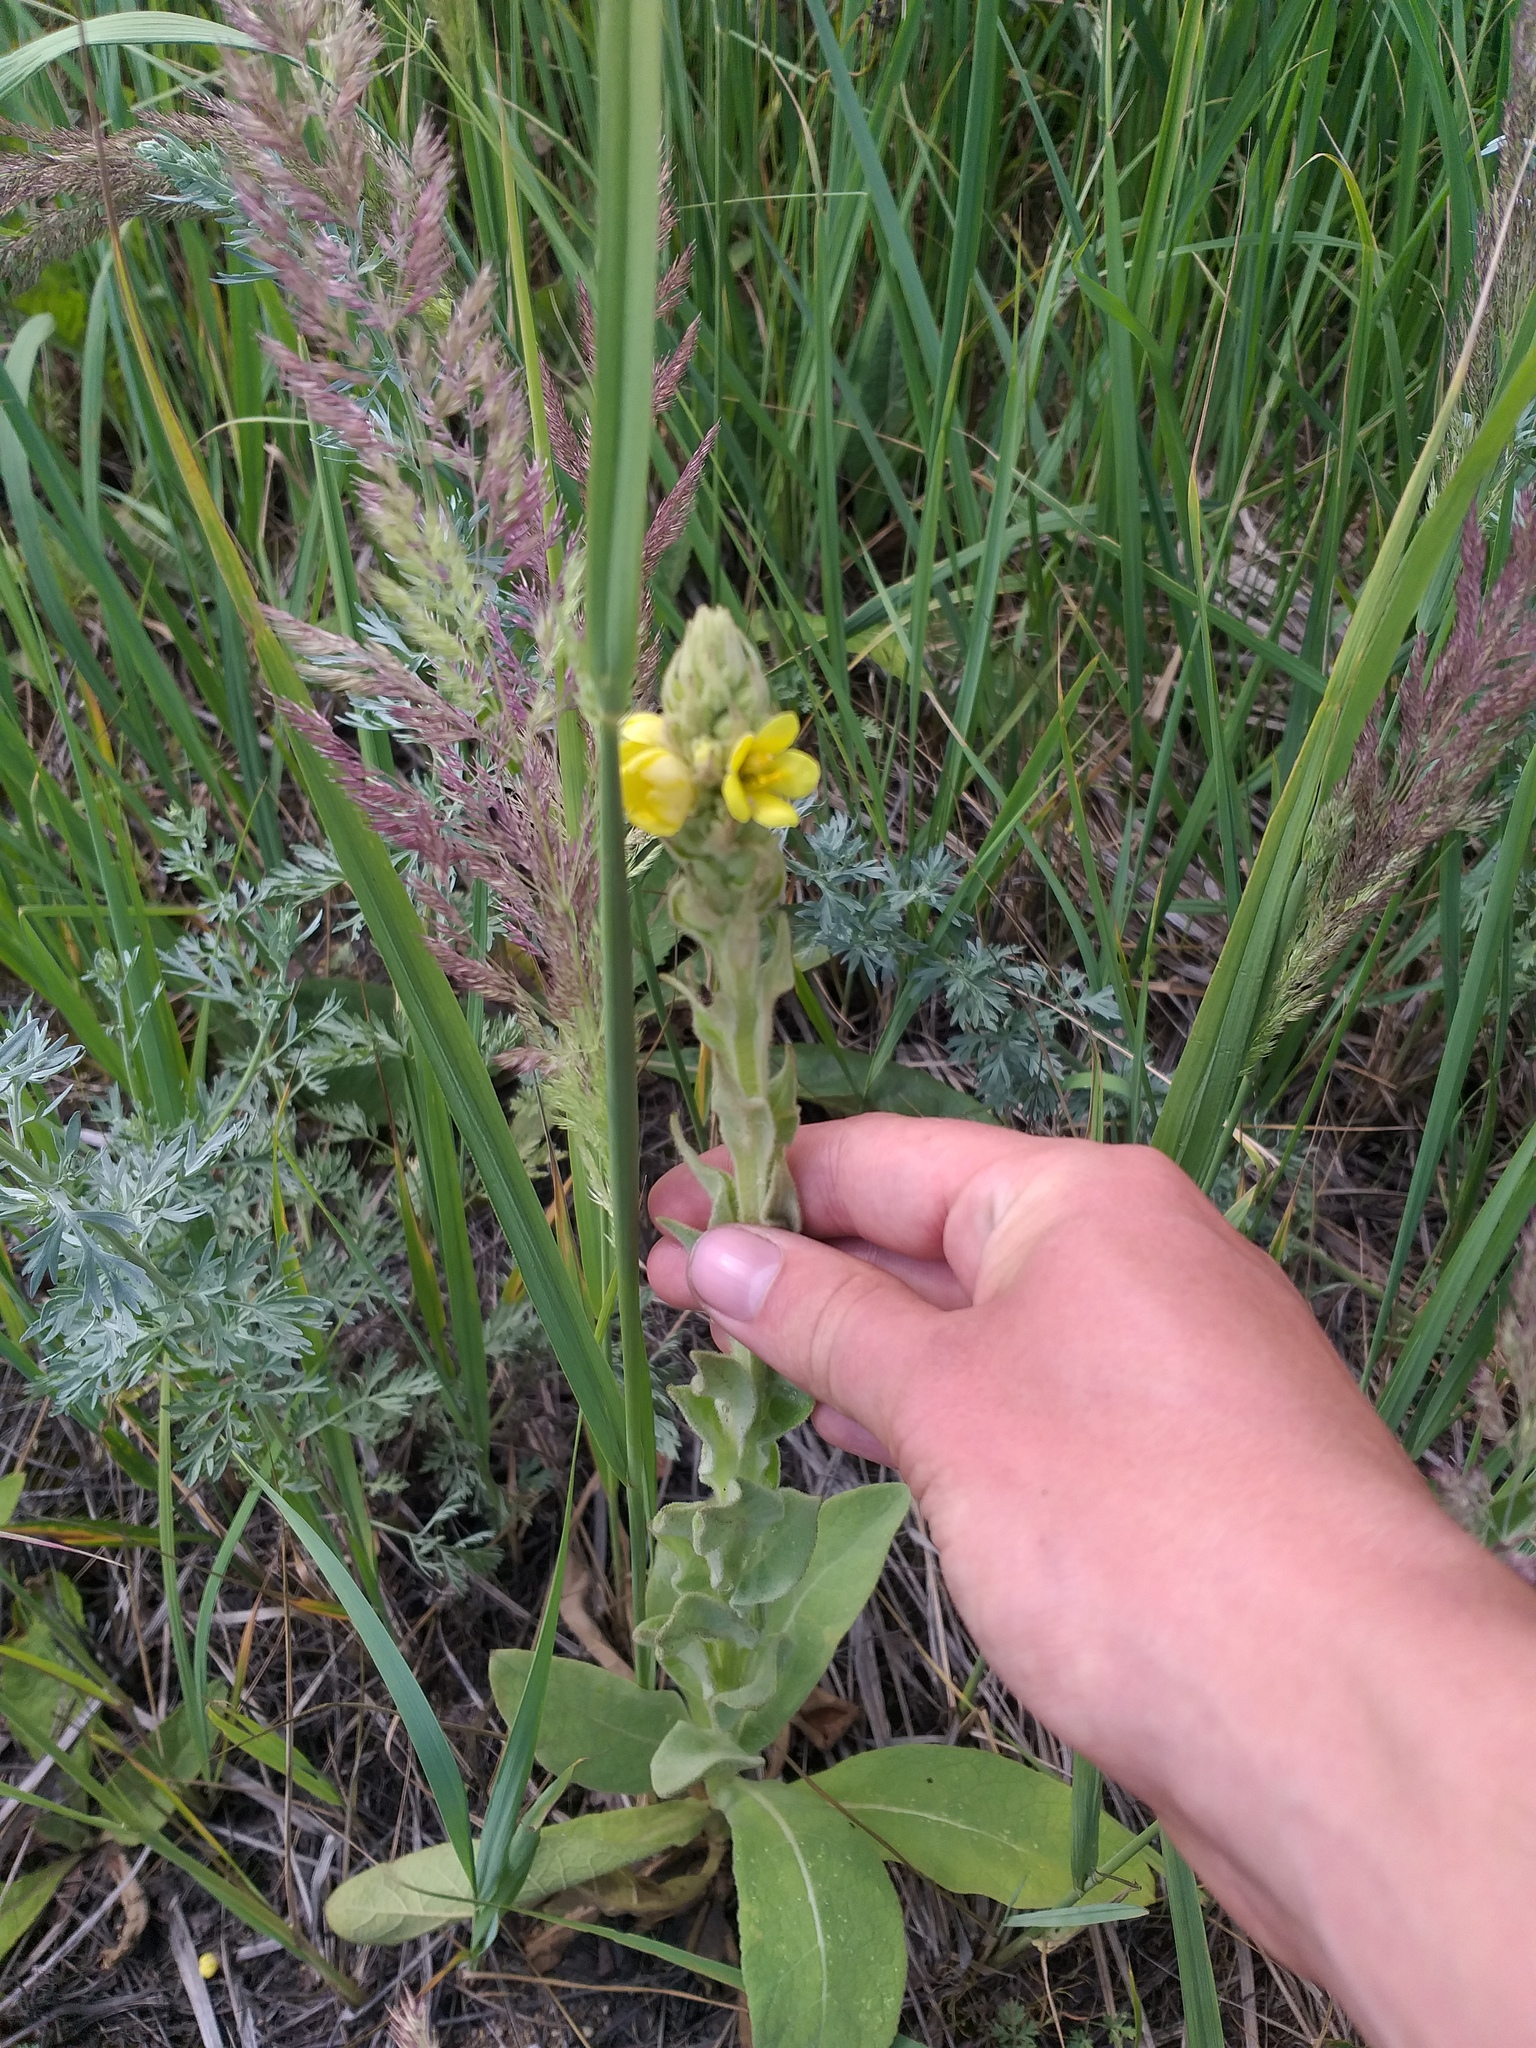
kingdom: Plantae
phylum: Tracheophyta
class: Magnoliopsida
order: Lamiales
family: Scrophulariaceae
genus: Verbascum
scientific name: Verbascum thapsus
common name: Common mullein
